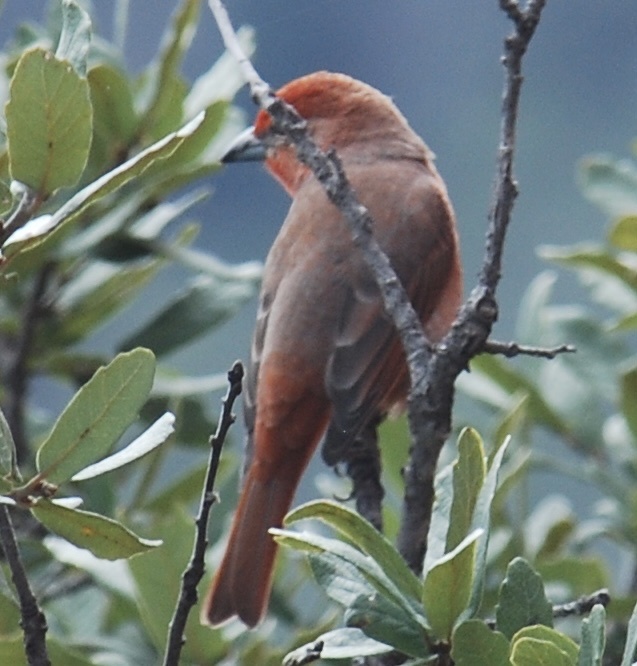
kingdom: Animalia
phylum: Chordata
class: Aves
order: Passeriformes
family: Cardinalidae
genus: Piranga
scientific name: Piranga flava
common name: Red tanager
